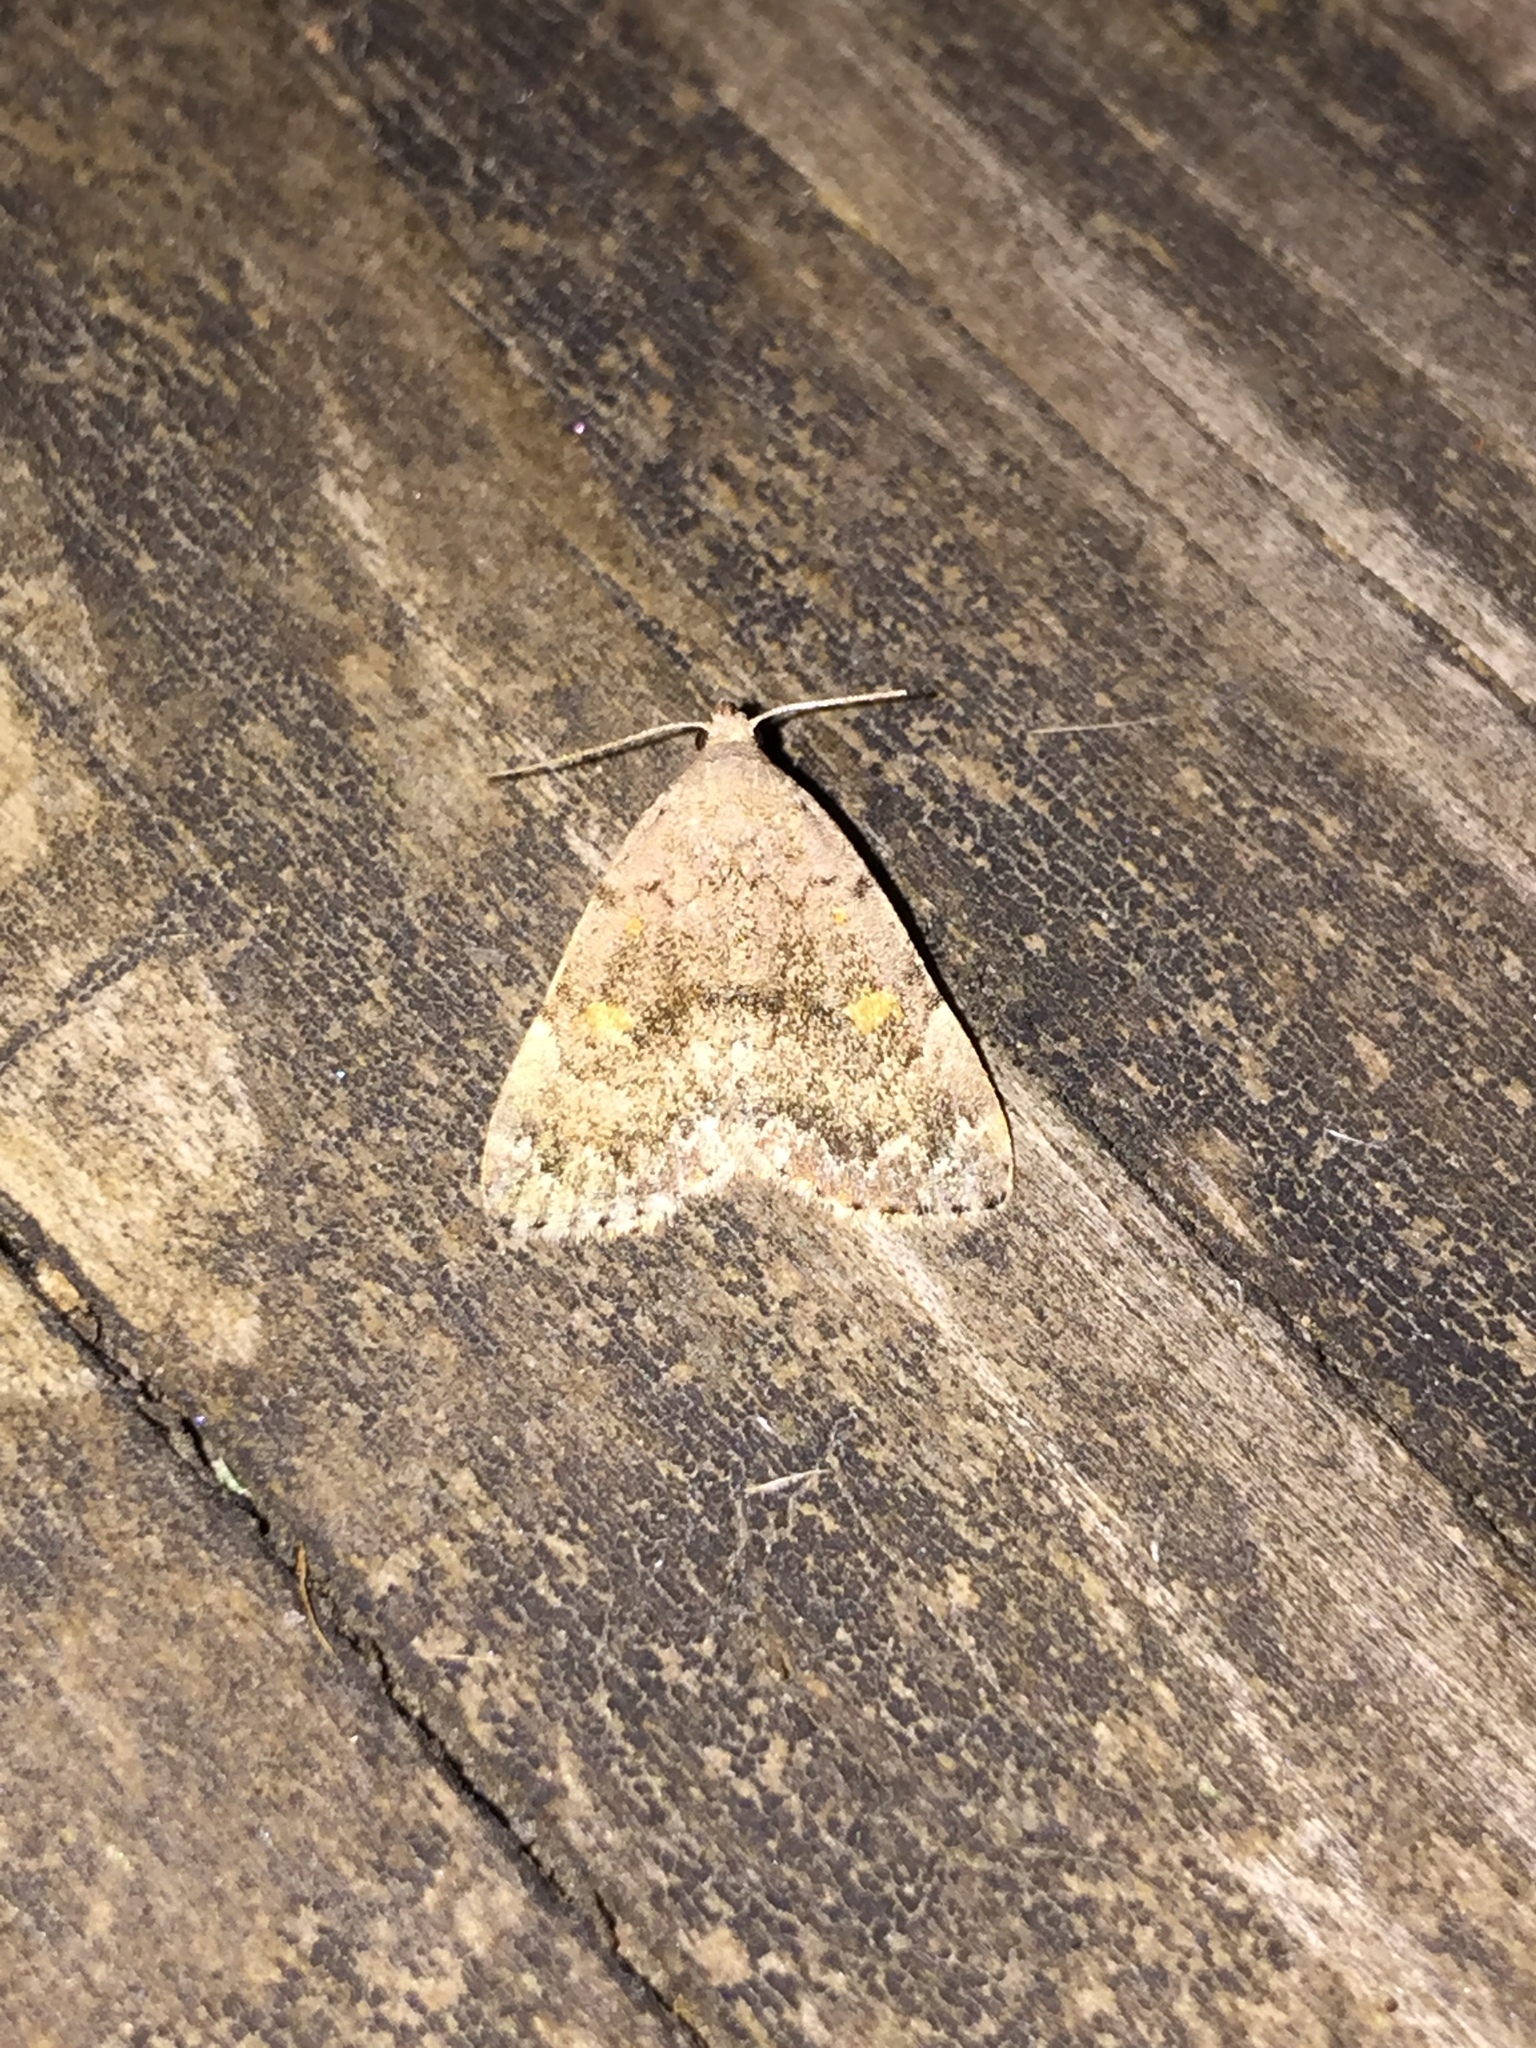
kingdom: Animalia
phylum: Arthropoda
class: Insecta
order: Lepidoptera
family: Erebidae
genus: Idia
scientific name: Idia aemula
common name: Common idia moth
